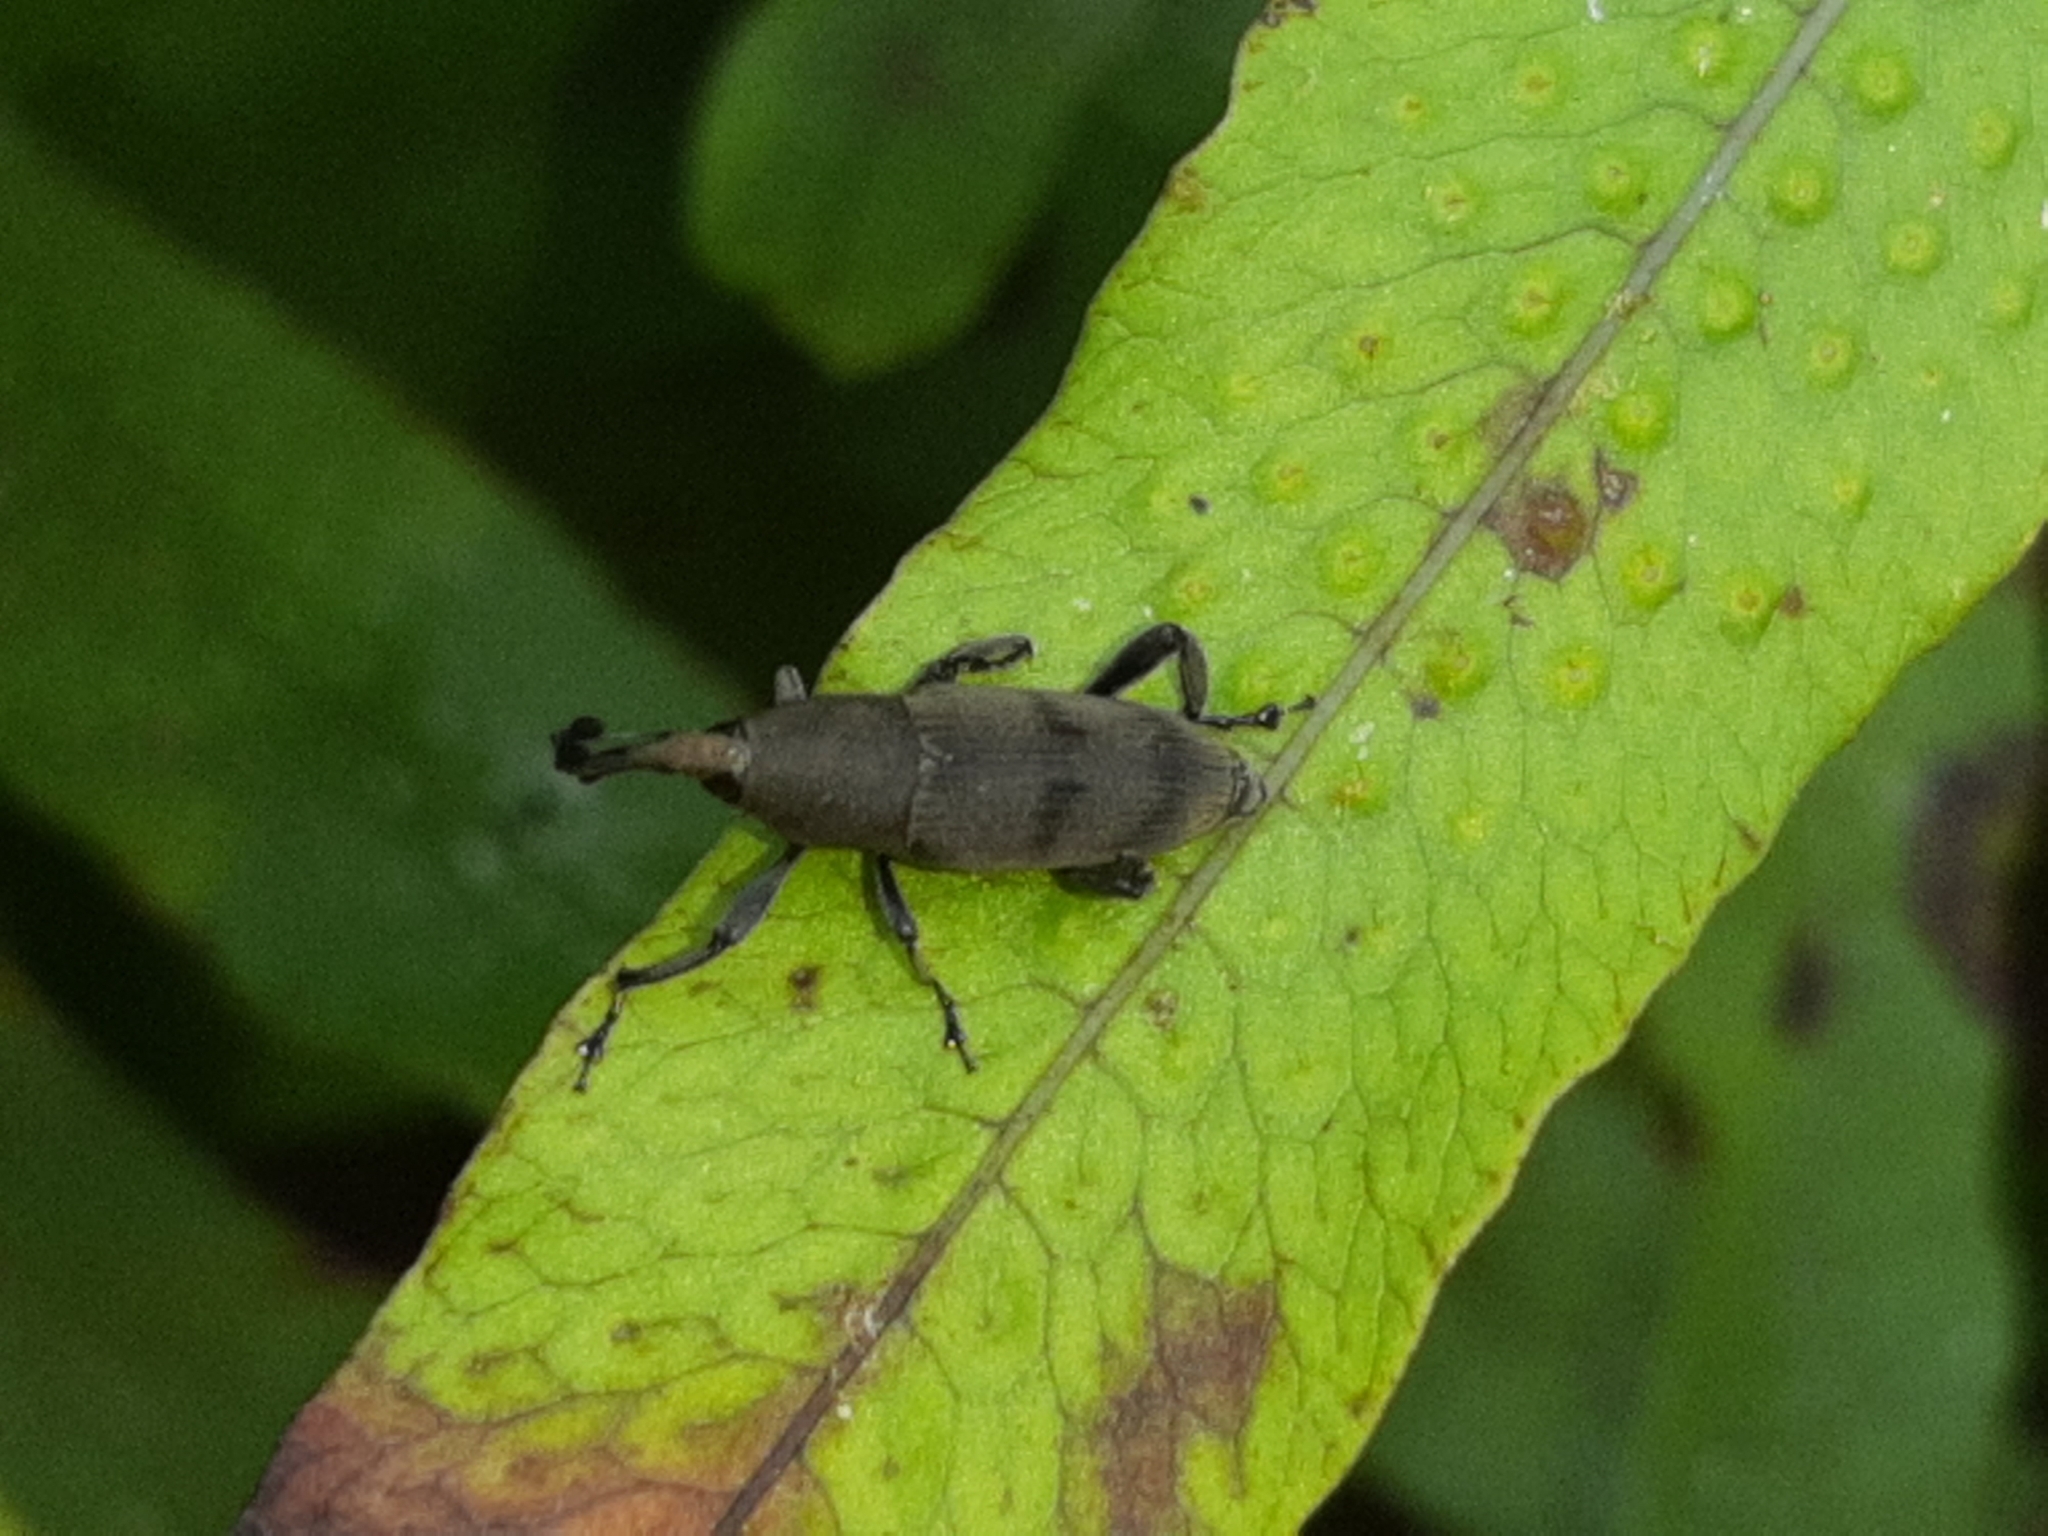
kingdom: Animalia
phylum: Arthropoda
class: Insecta
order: Coleoptera
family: Dryophthoridae
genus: Rhodobaenus
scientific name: Rhodobaenus
